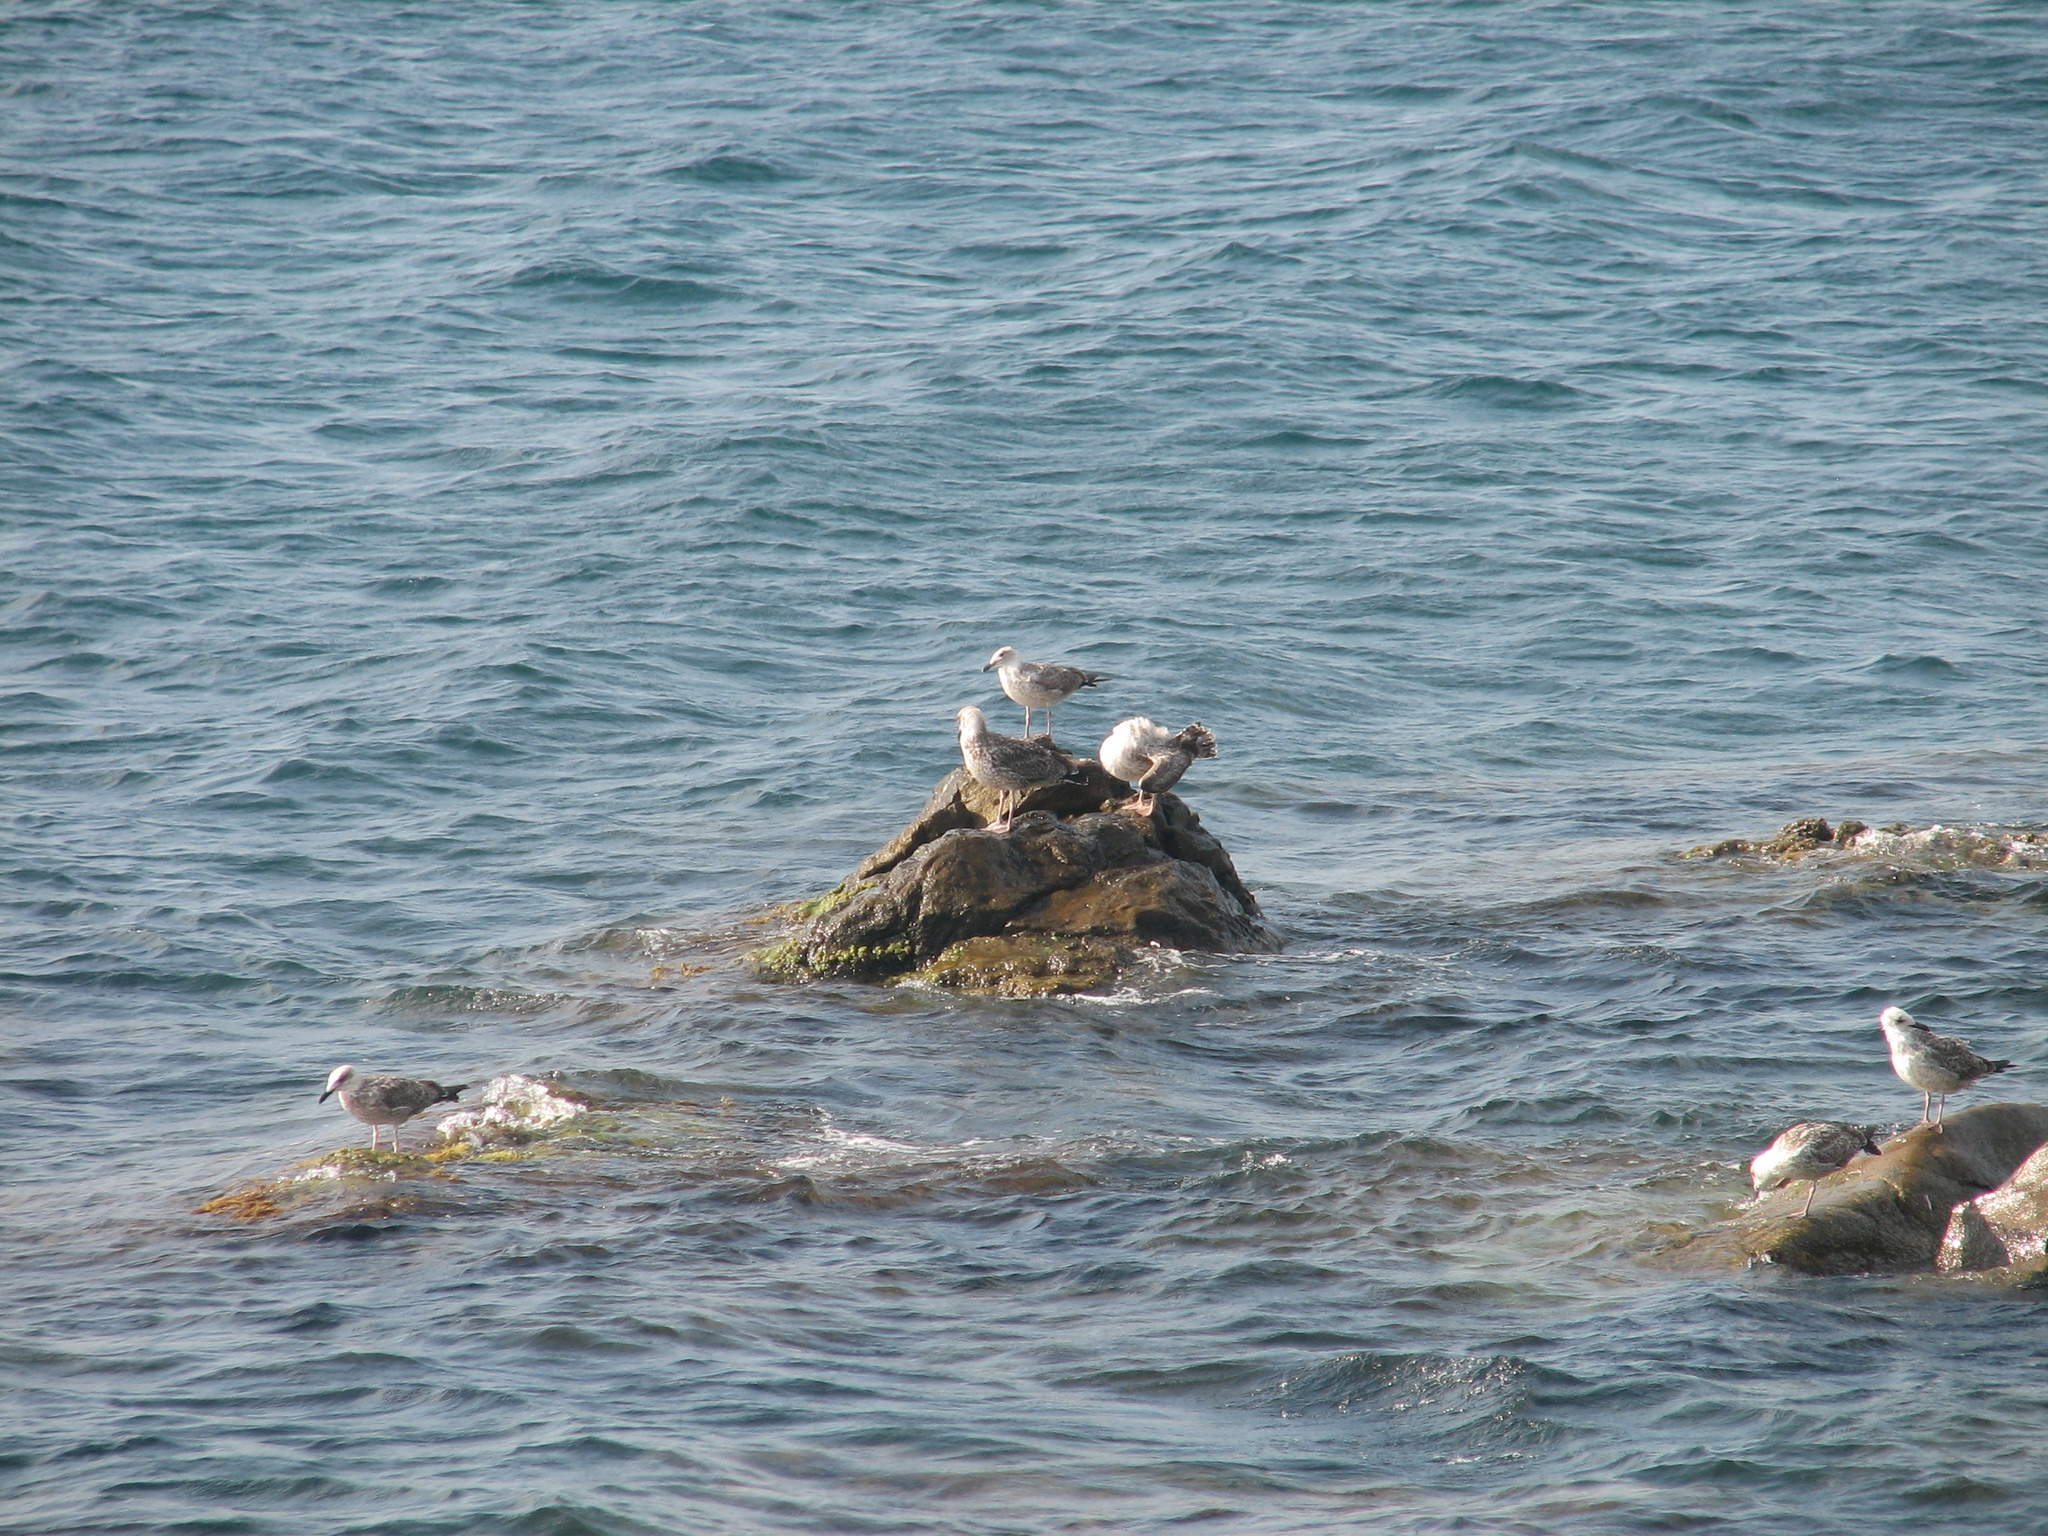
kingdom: Animalia
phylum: Chordata
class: Aves
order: Charadriiformes
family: Laridae
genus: Larus
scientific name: Larus michahellis
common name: Yellow-legged gull
